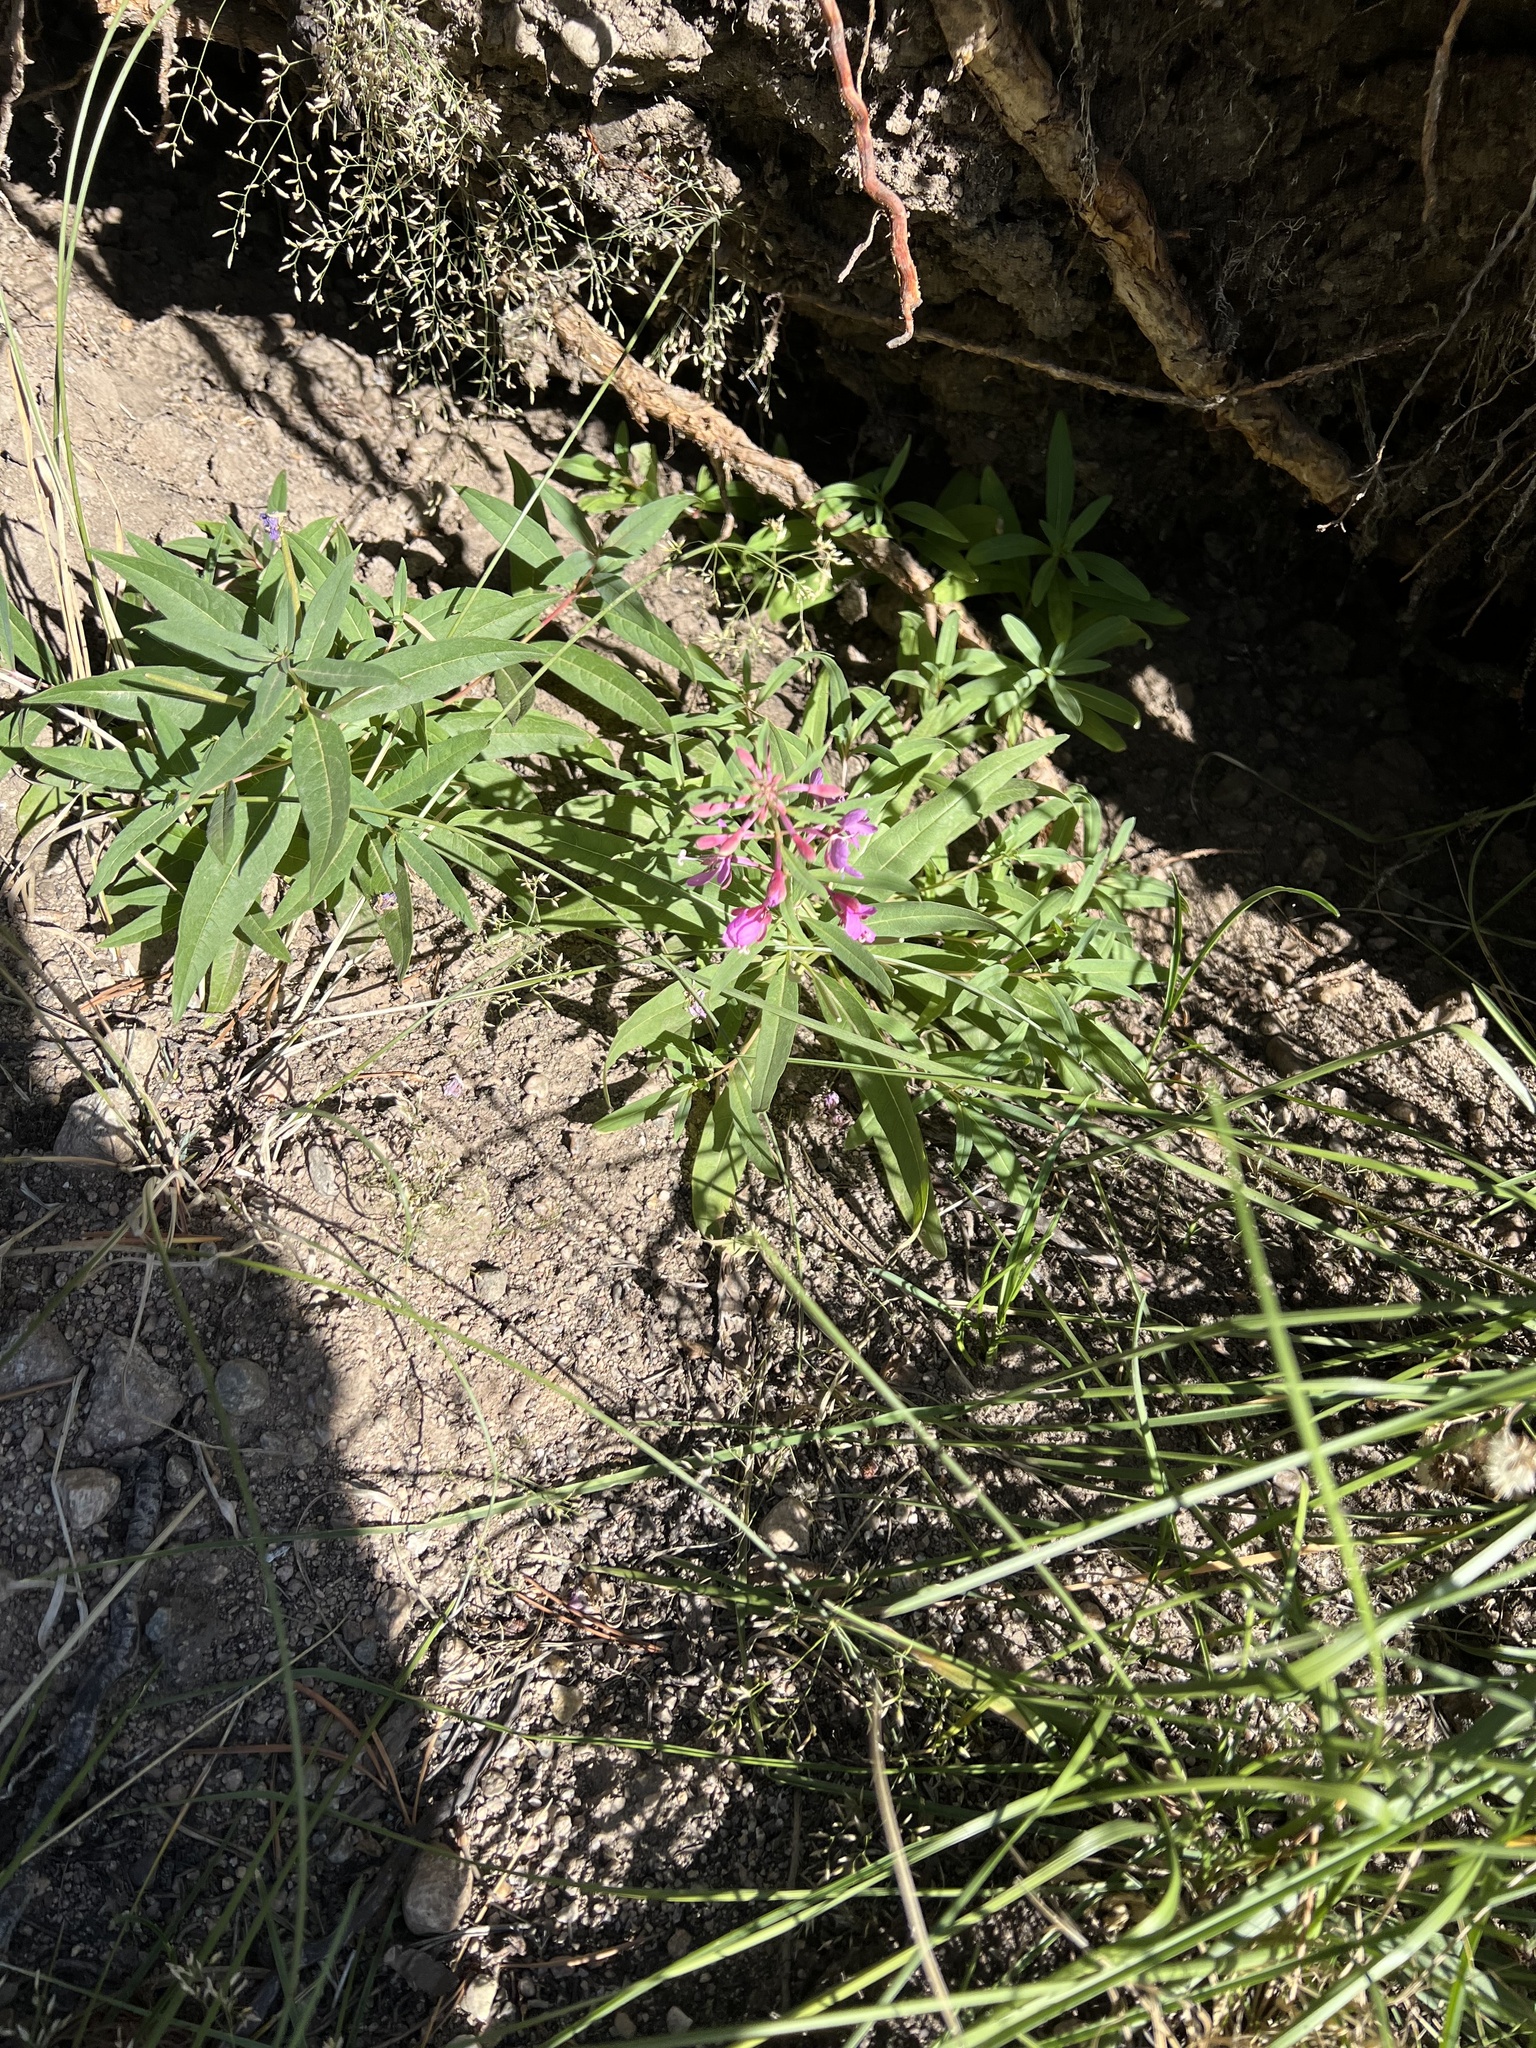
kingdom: Plantae
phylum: Tracheophyta
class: Magnoliopsida
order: Myrtales
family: Onagraceae
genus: Chamaenerion
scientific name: Chamaenerion angustifolium
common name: Fireweed
